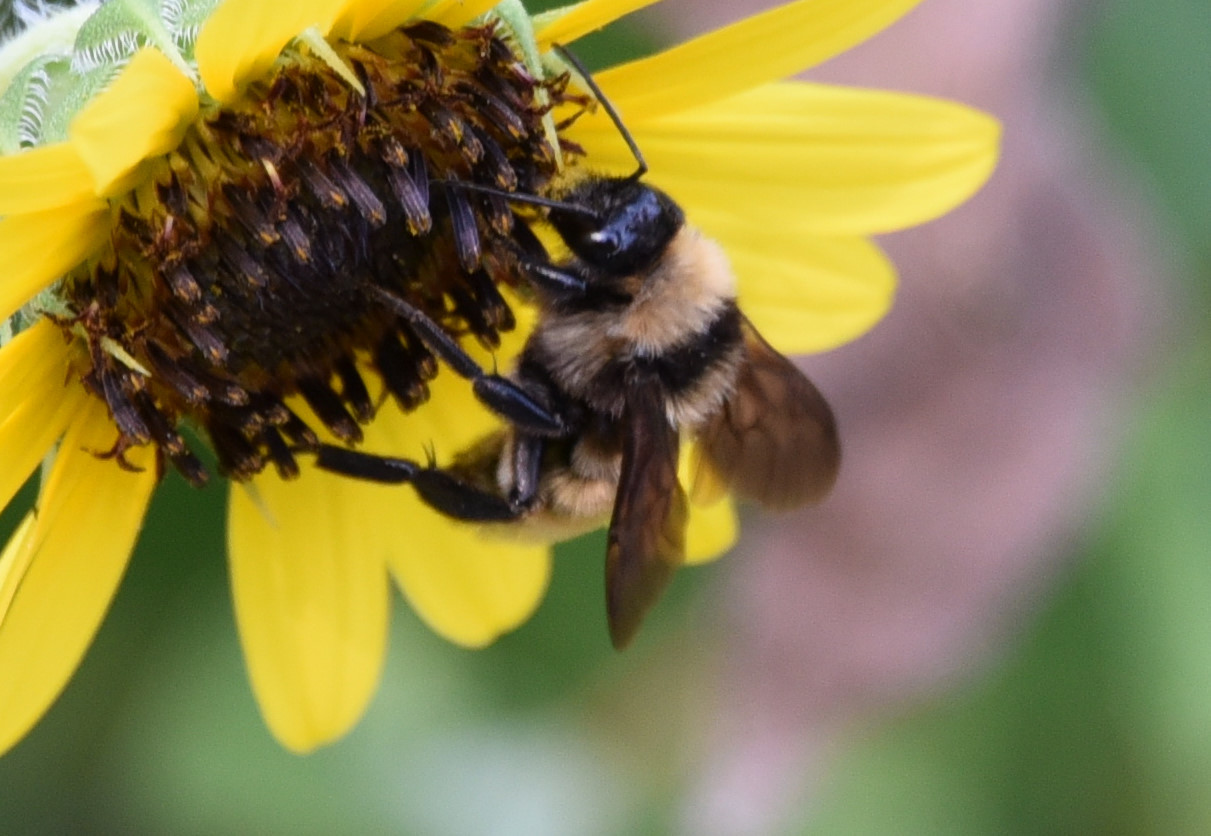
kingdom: Animalia
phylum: Arthropoda
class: Insecta
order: Hymenoptera
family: Apidae
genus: Bombus
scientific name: Bombus pensylvanicus
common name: Bumble bee
